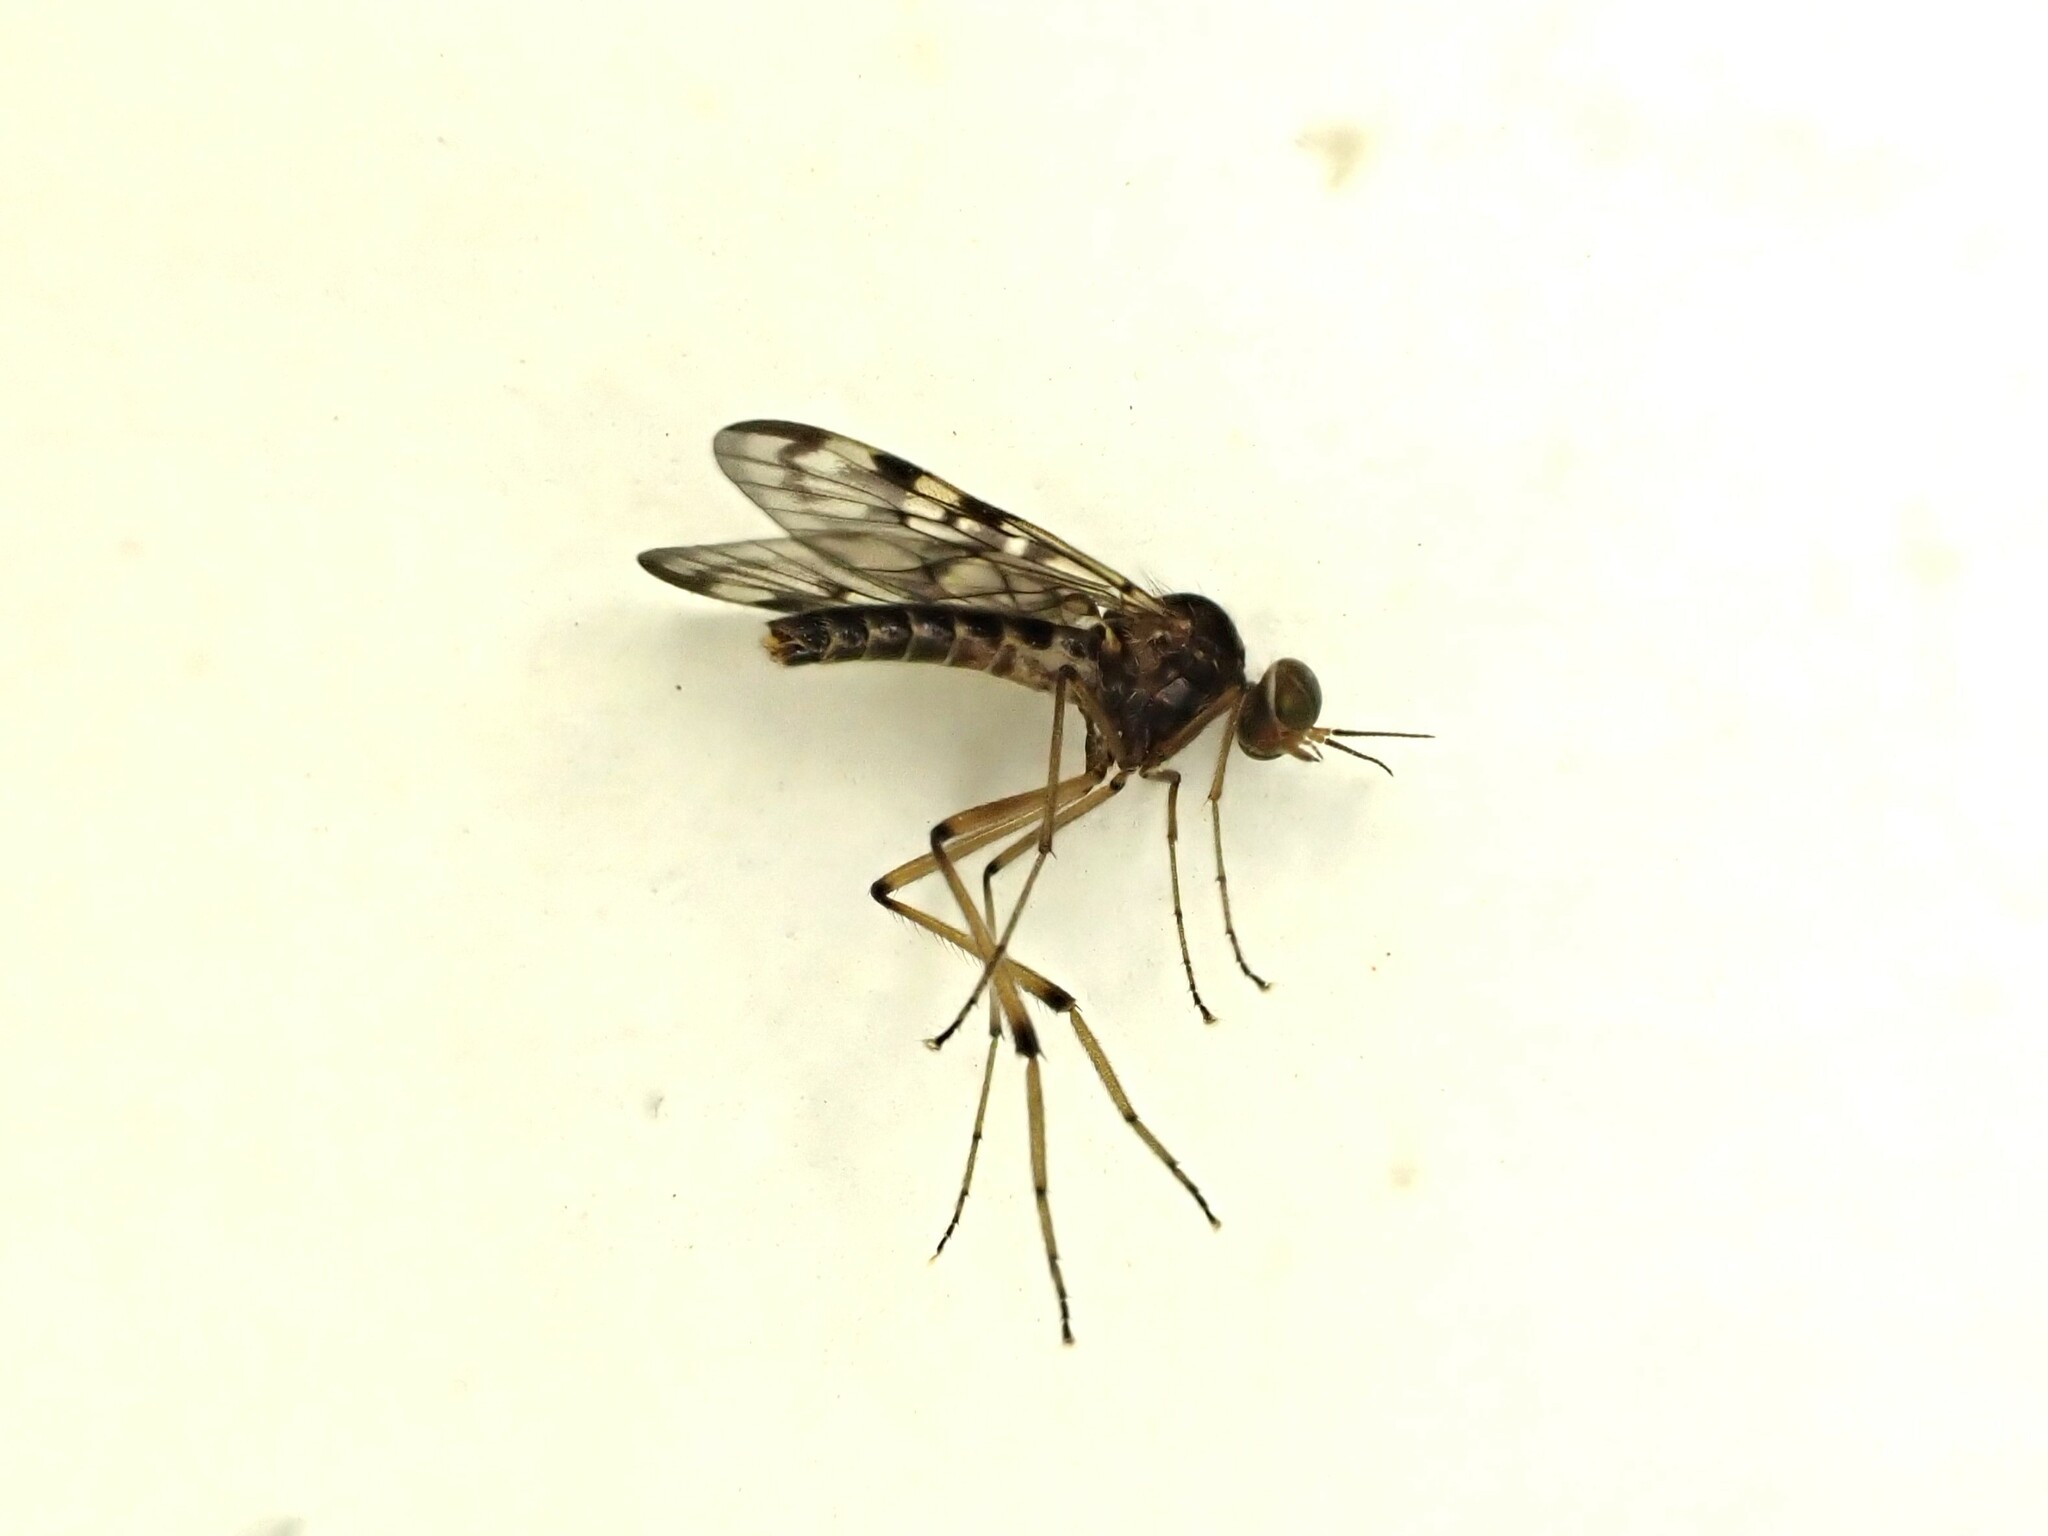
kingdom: Animalia
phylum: Arthropoda
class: Insecta
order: Diptera
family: Anisopodidae
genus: Sylvicola
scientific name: Sylvicola dubius
